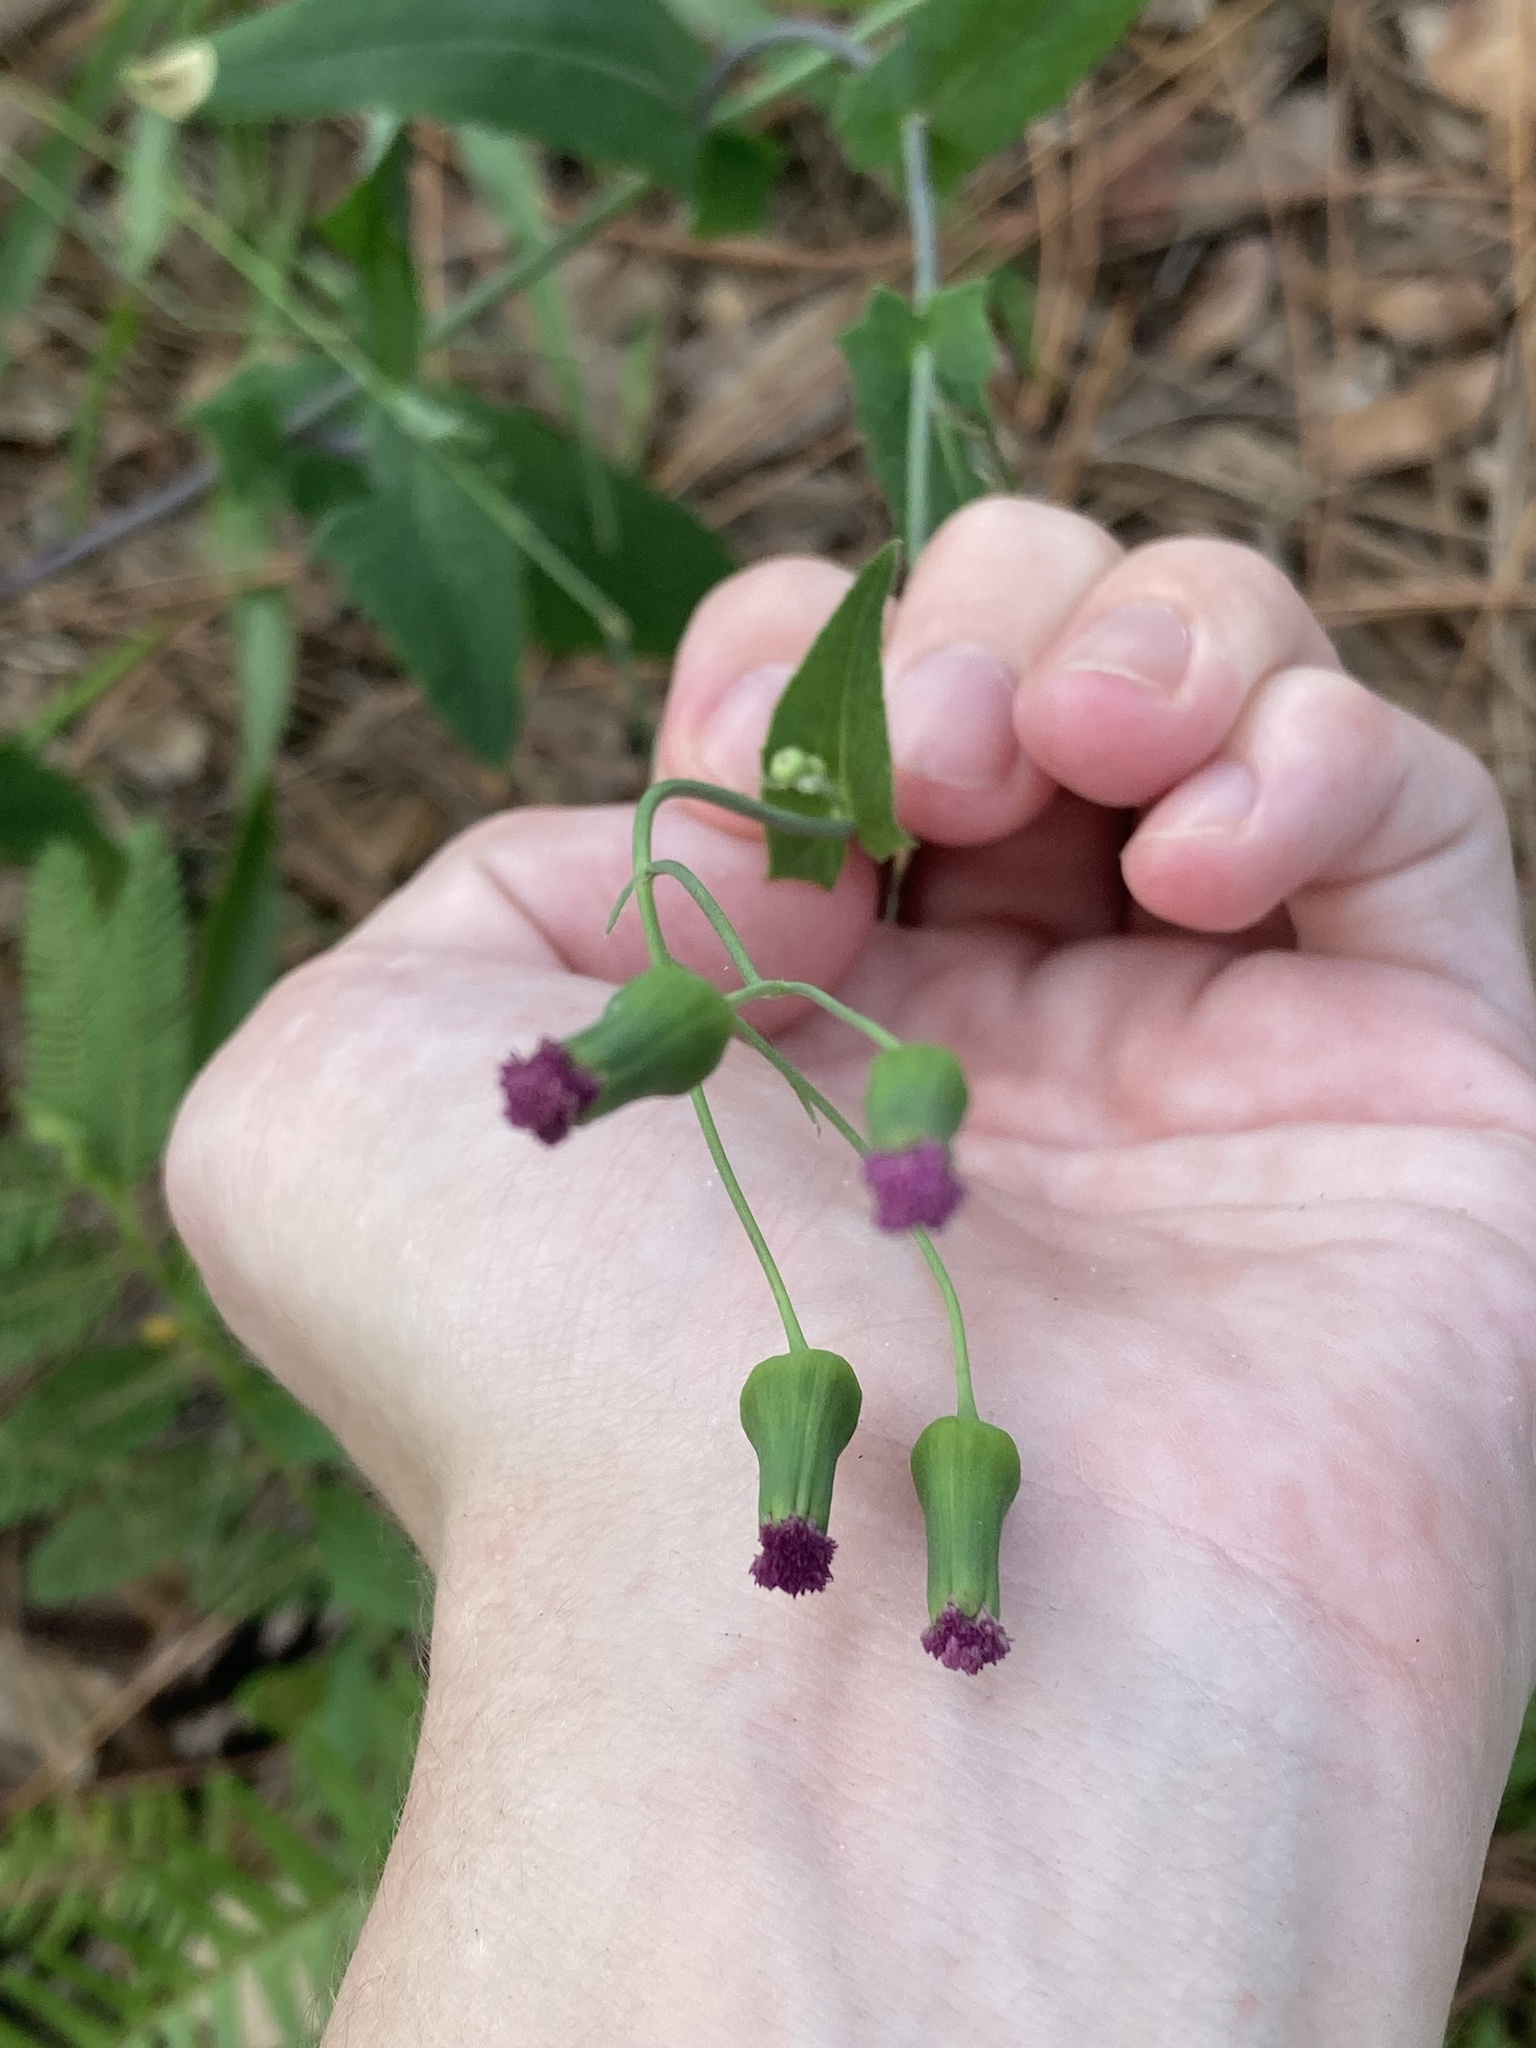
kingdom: Plantae
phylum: Tracheophyta
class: Magnoliopsida
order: Asterales
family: Asteraceae
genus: Emilia
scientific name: Emilia sonchifolia
